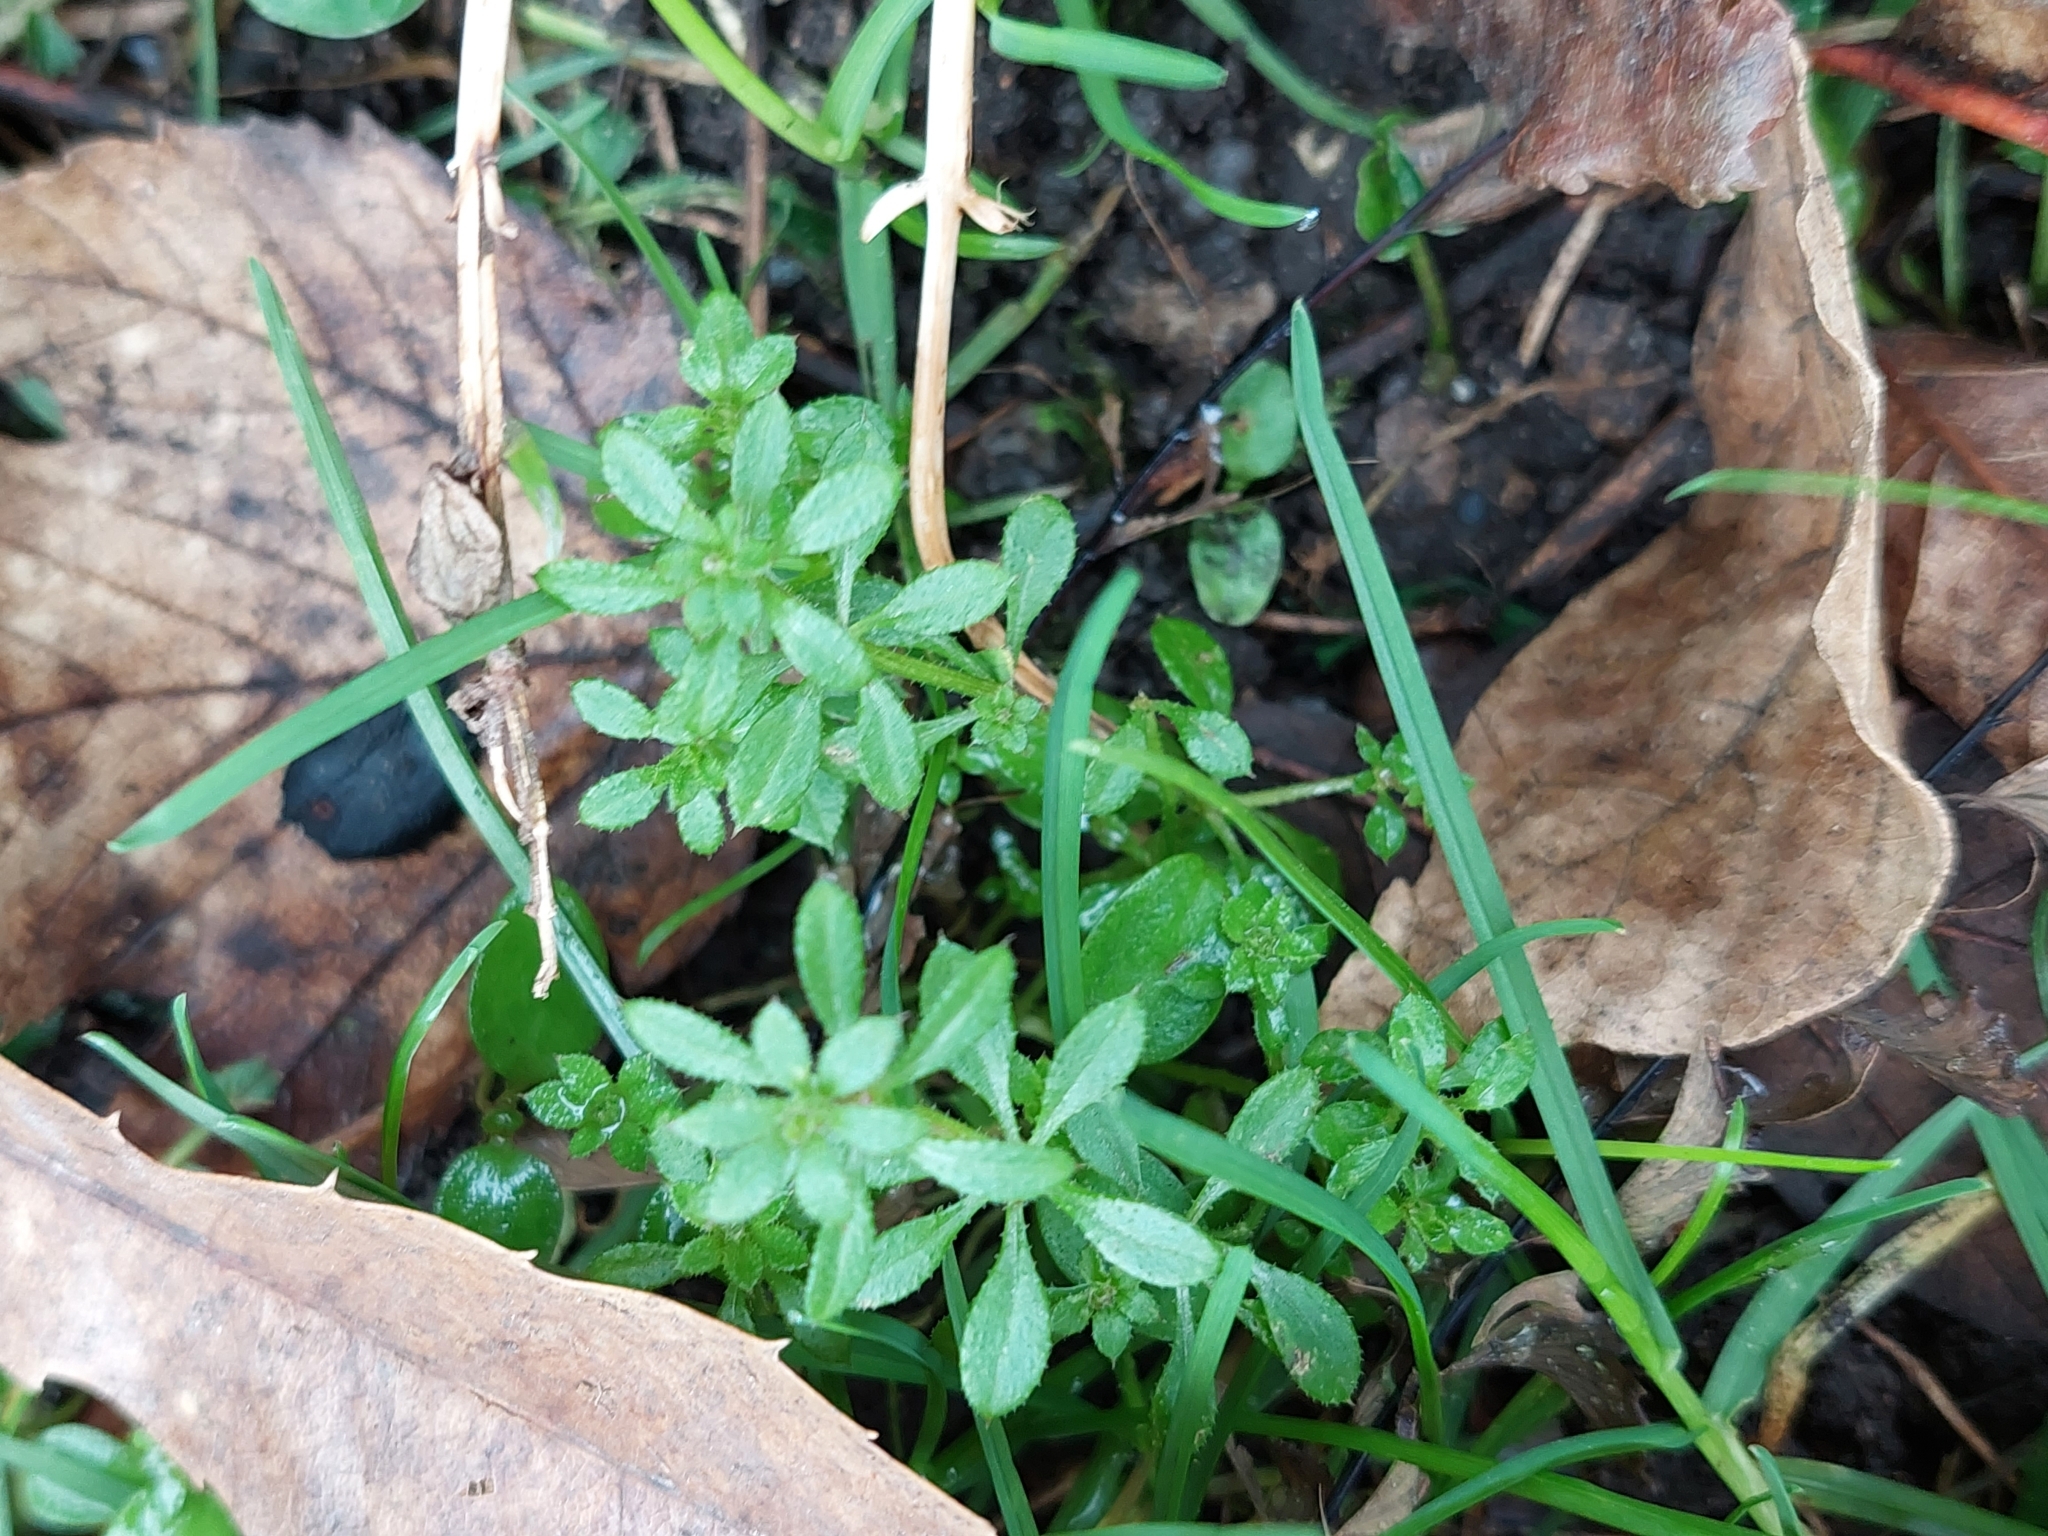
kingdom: Plantae
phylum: Tracheophyta
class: Magnoliopsida
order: Gentianales
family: Rubiaceae
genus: Galium
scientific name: Galium aparine
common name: Cleavers
